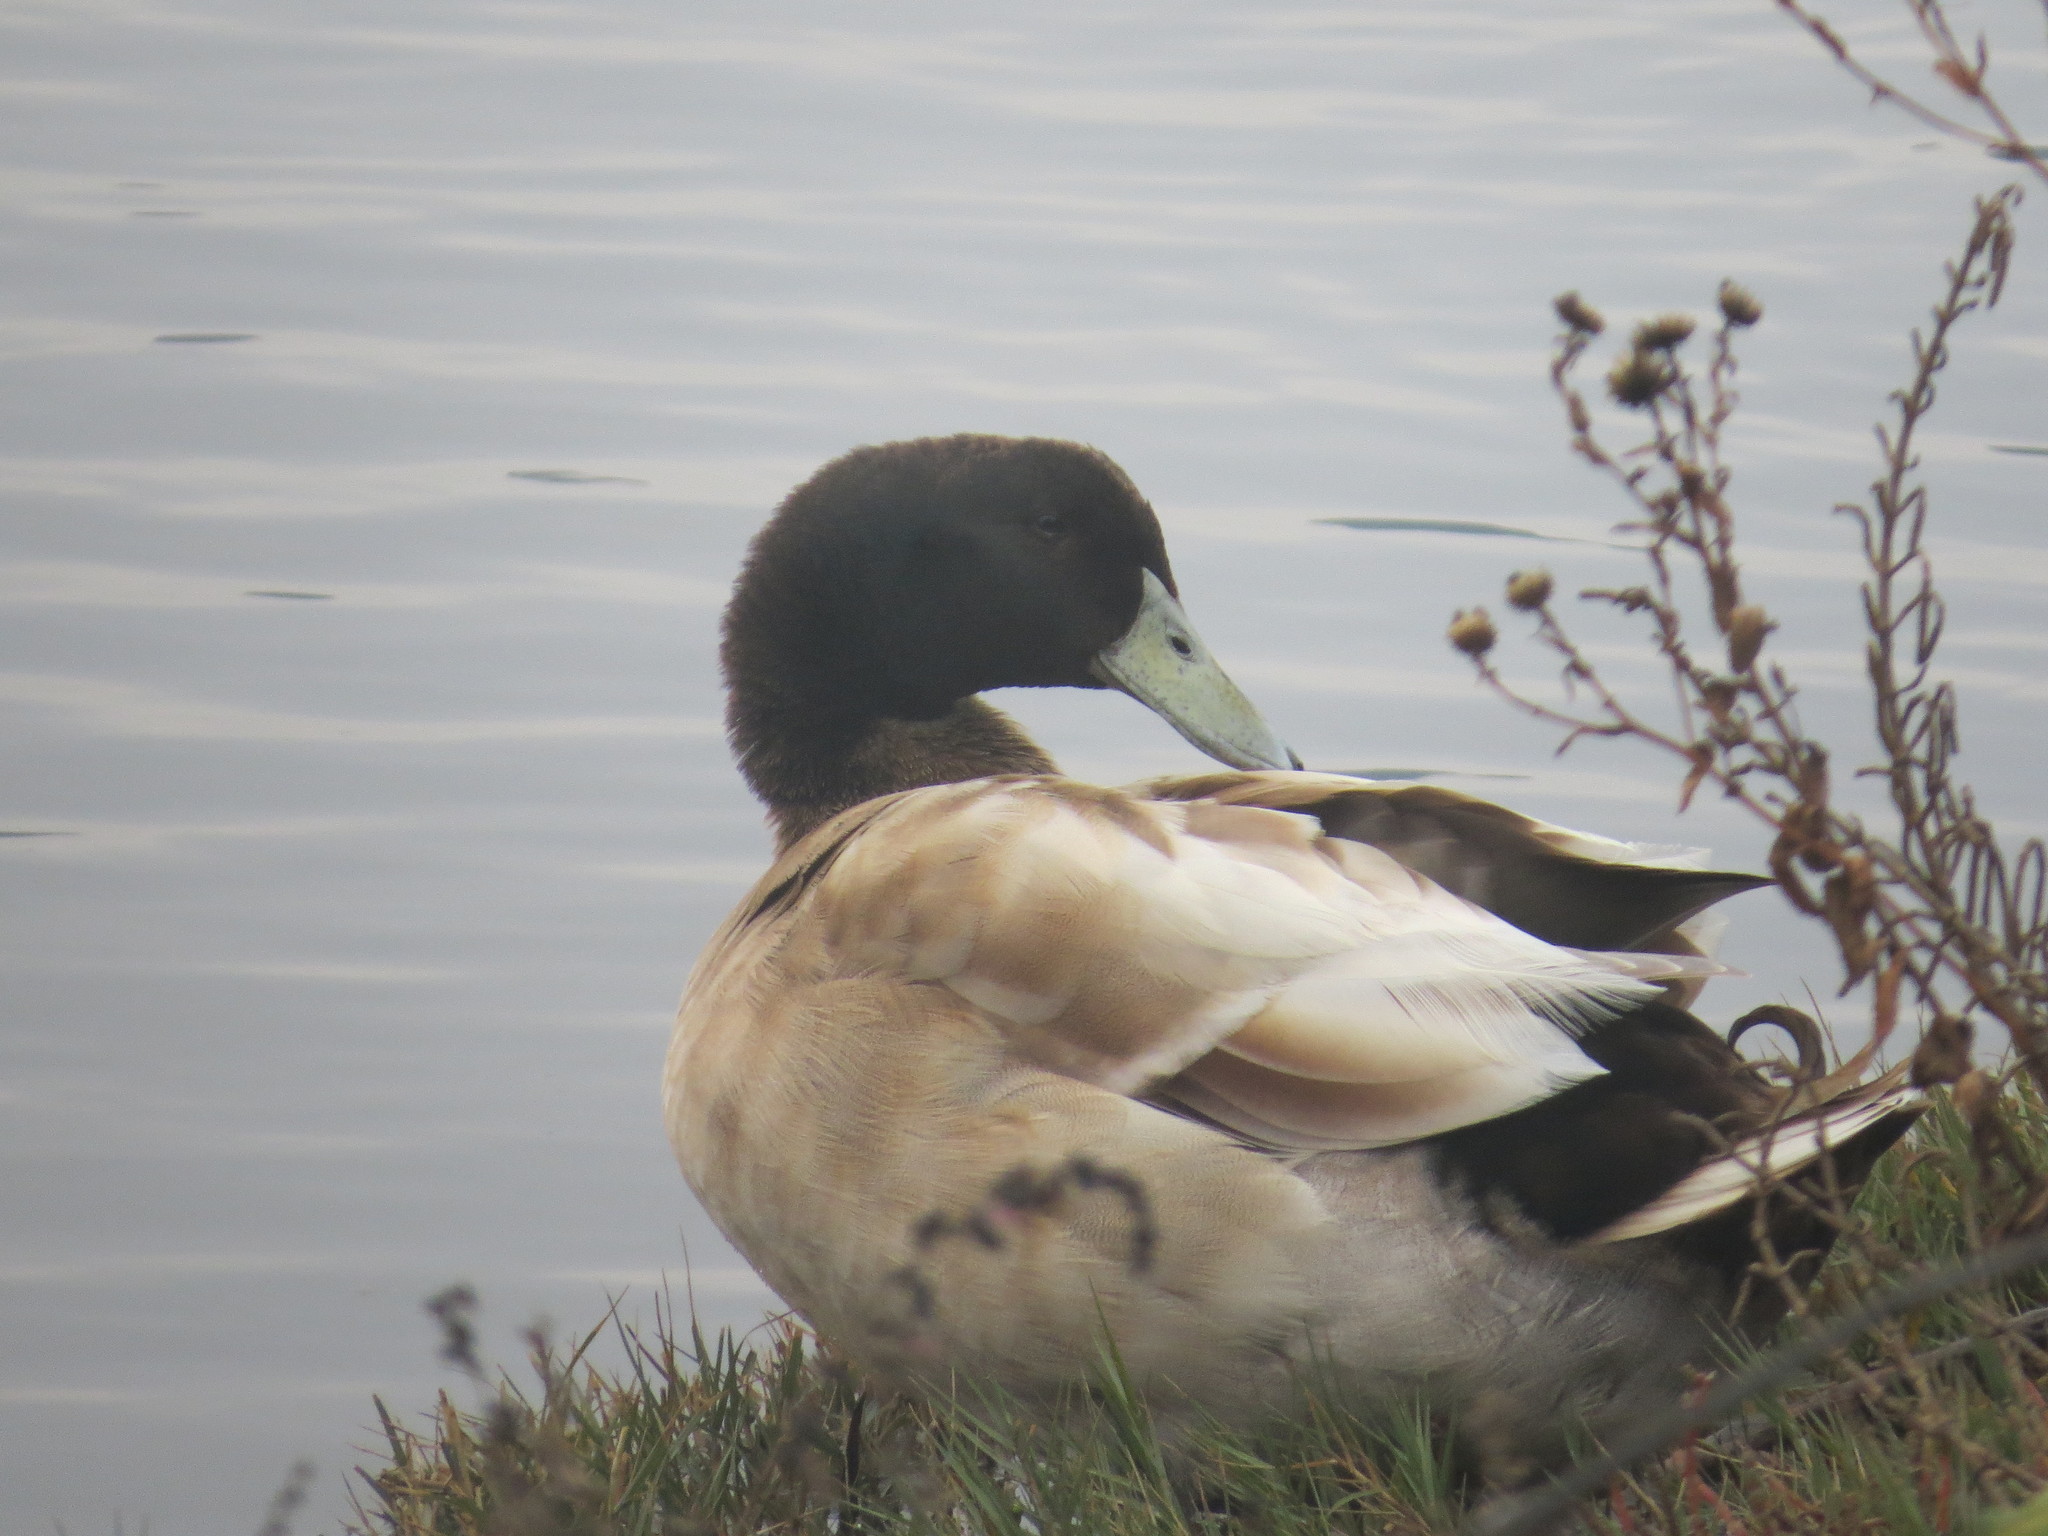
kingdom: Animalia
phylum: Chordata
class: Aves
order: Anseriformes
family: Anatidae
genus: Anas
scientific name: Anas platyrhynchos
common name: Mallard
